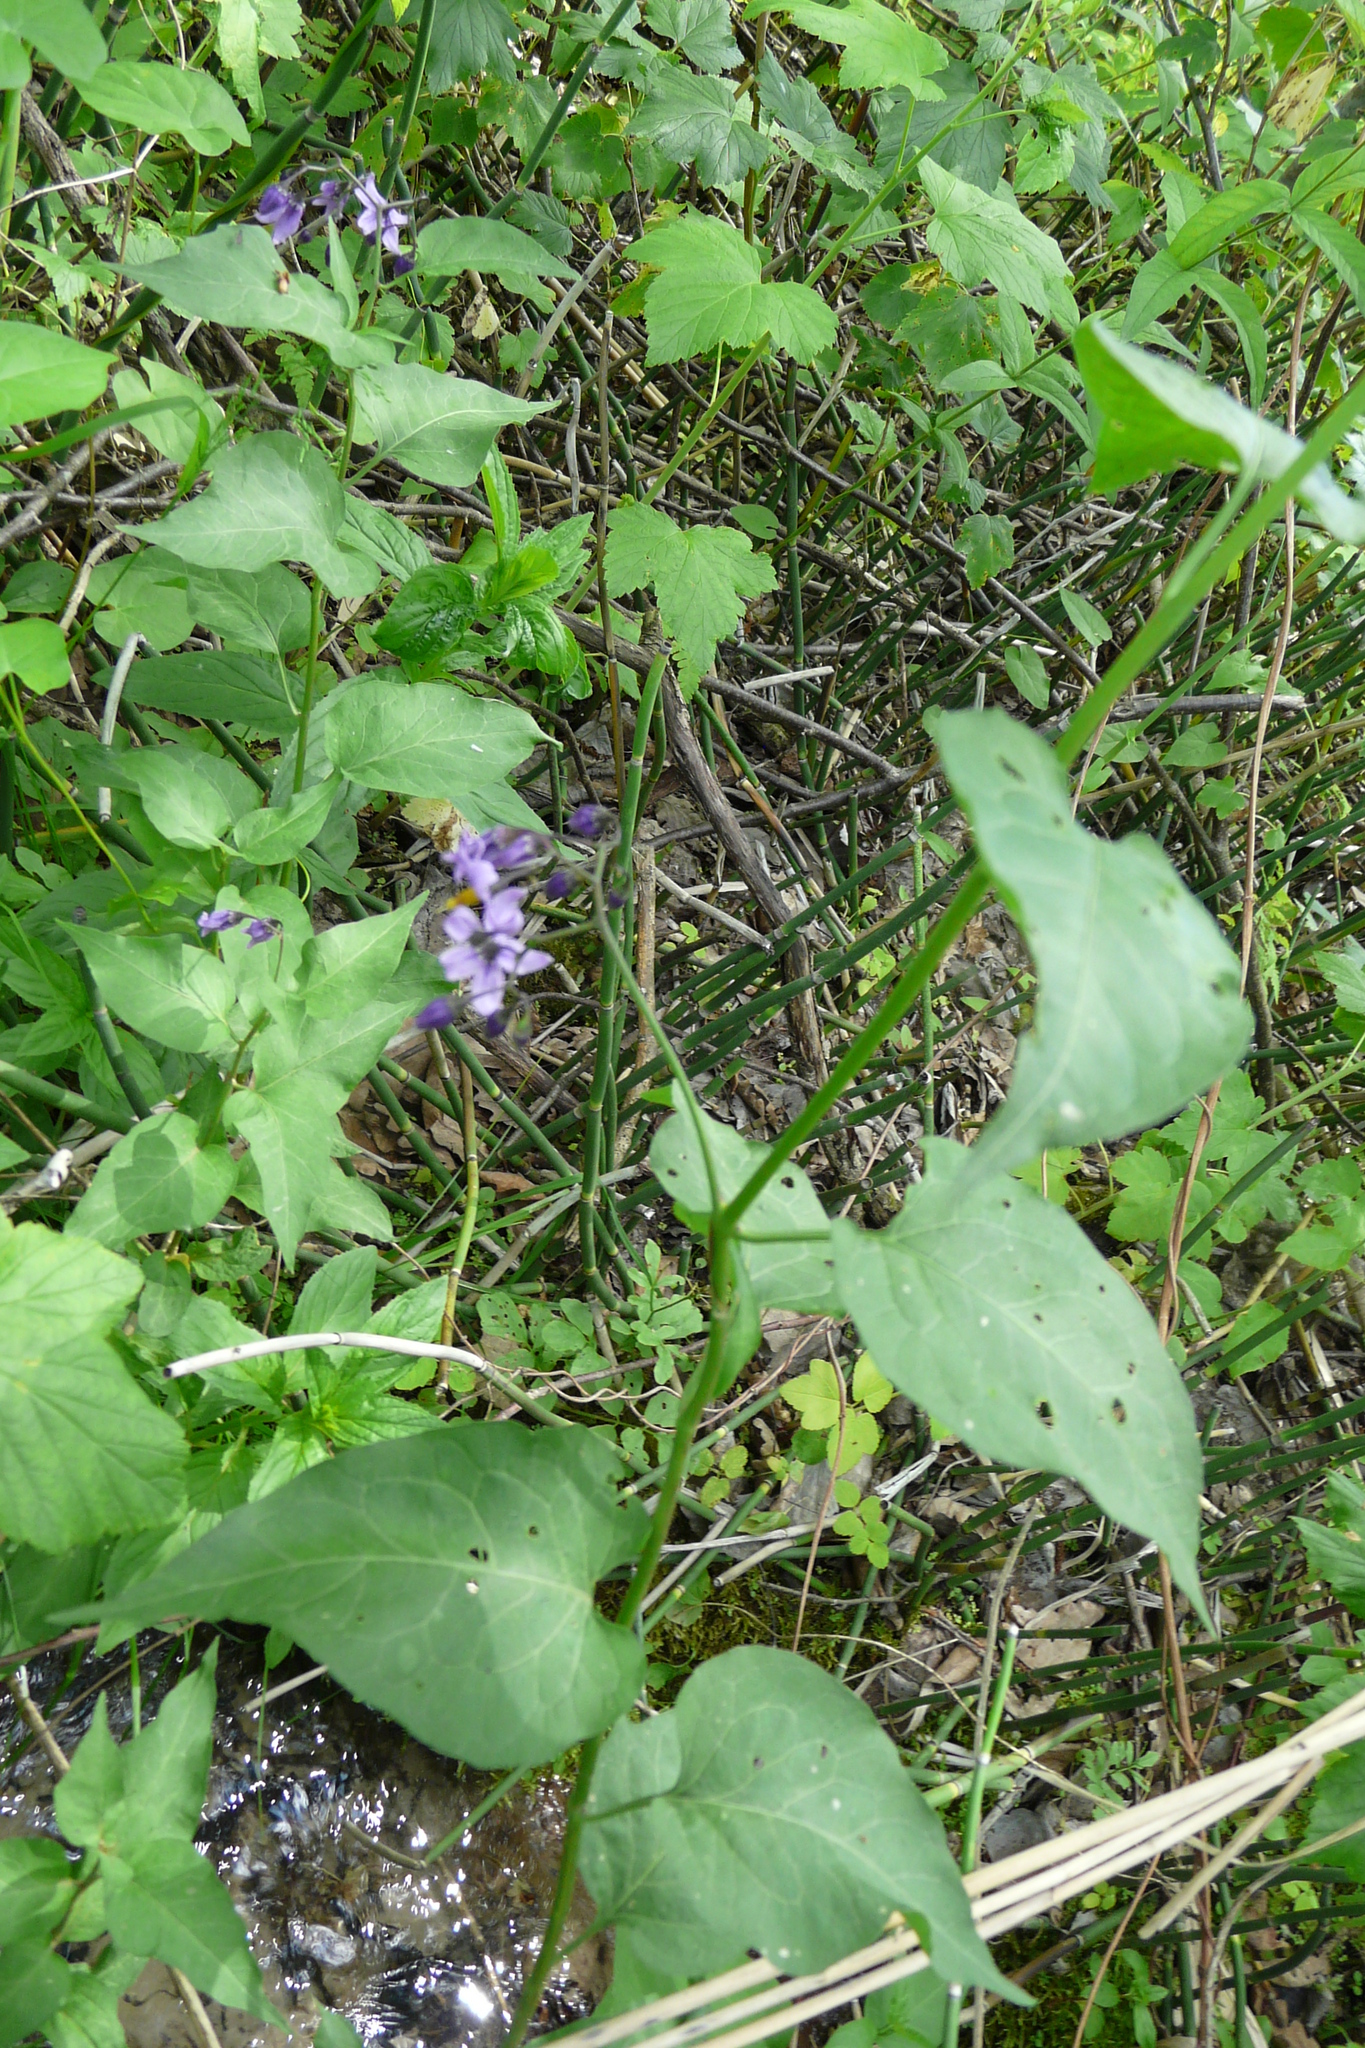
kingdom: Plantae
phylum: Tracheophyta
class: Magnoliopsida
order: Solanales
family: Solanaceae
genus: Solanum
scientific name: Solanum dulcamara
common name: Climbing nightshade
